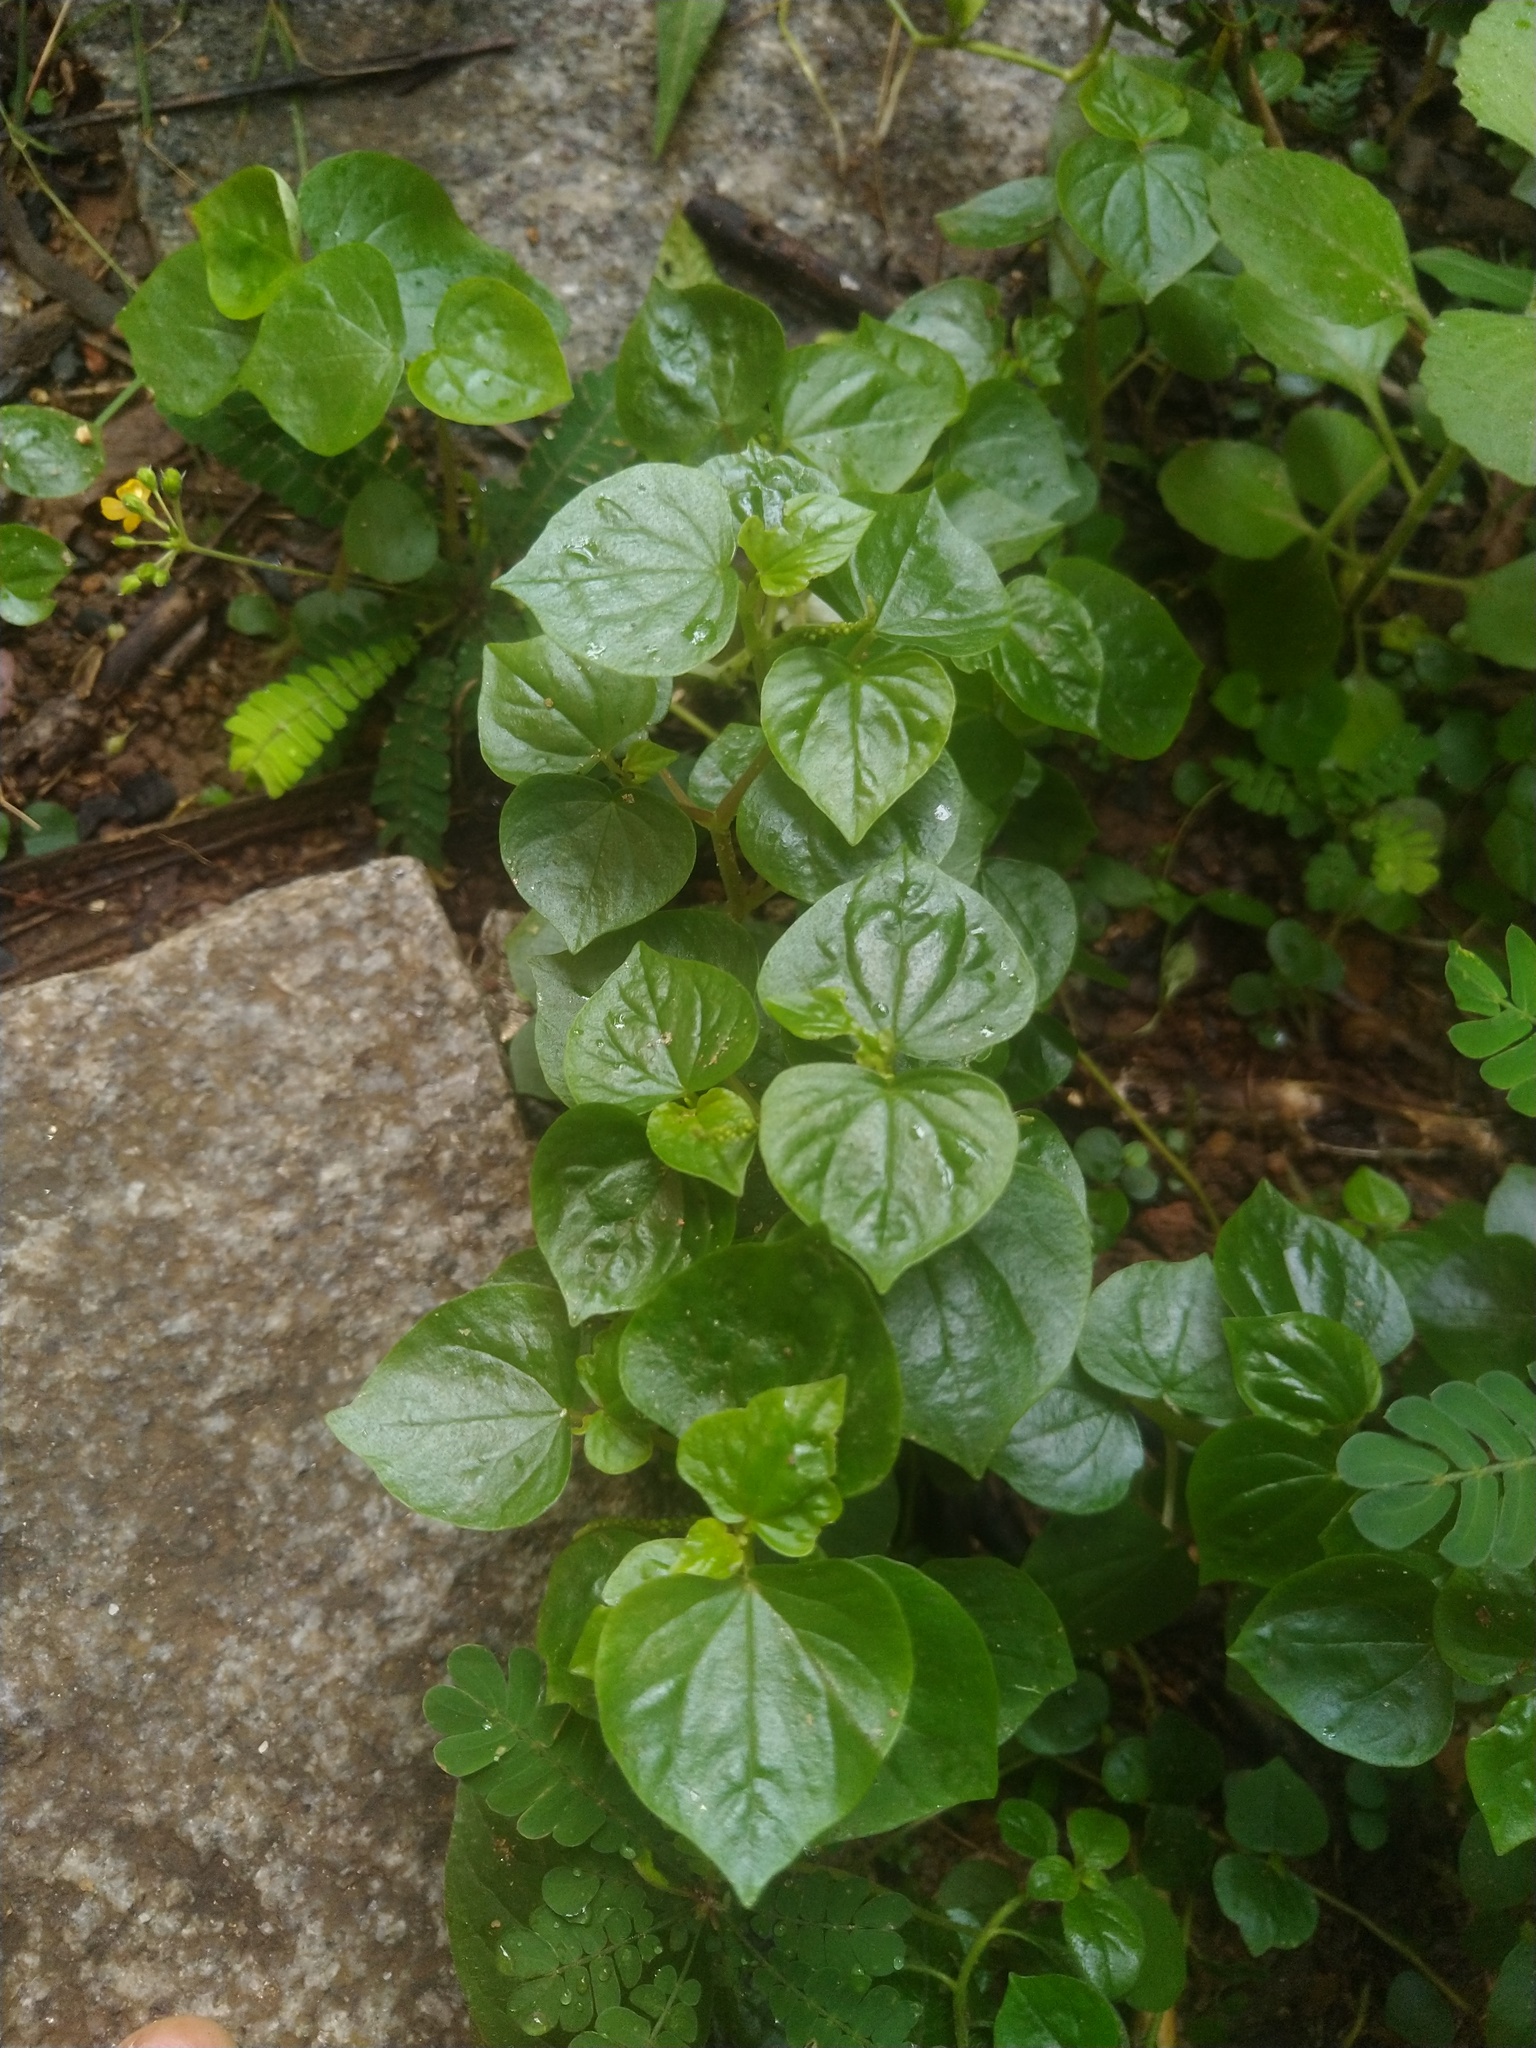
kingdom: Plantae
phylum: Tracheophyta
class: Magnoliopsida
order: Piperales
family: Piperaceae
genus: Peperomia
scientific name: Peperomia pellucida
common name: Man to man
